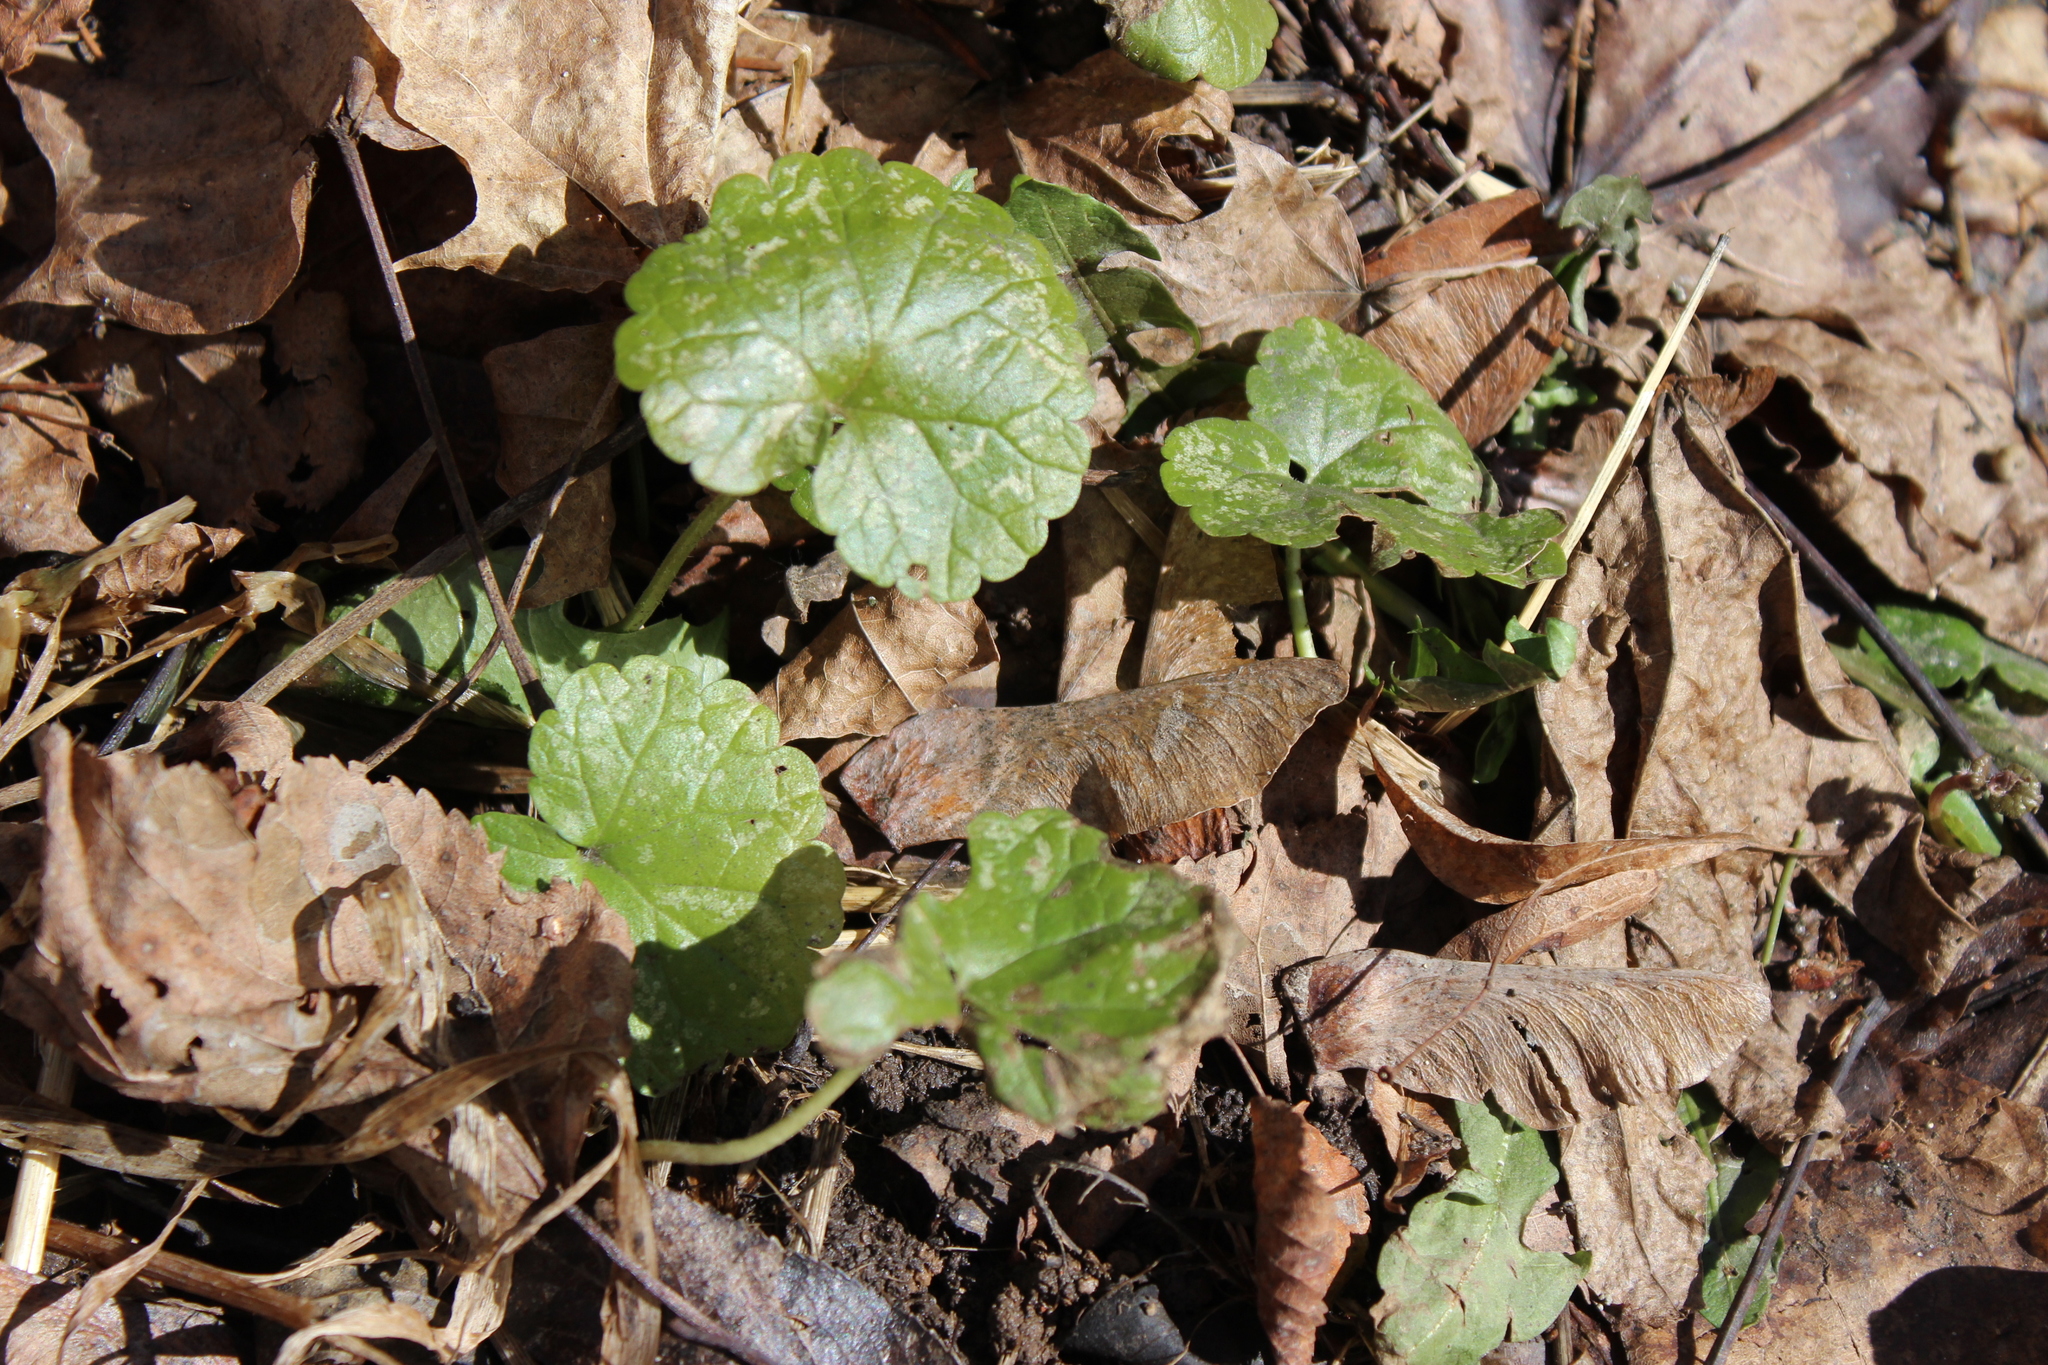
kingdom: Plantae
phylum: Tracheophyta
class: Magnoliopsida
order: Lamiales
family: Lamiaceae
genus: Glechoma
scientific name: Glechoma hederacea
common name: Ground ivy
